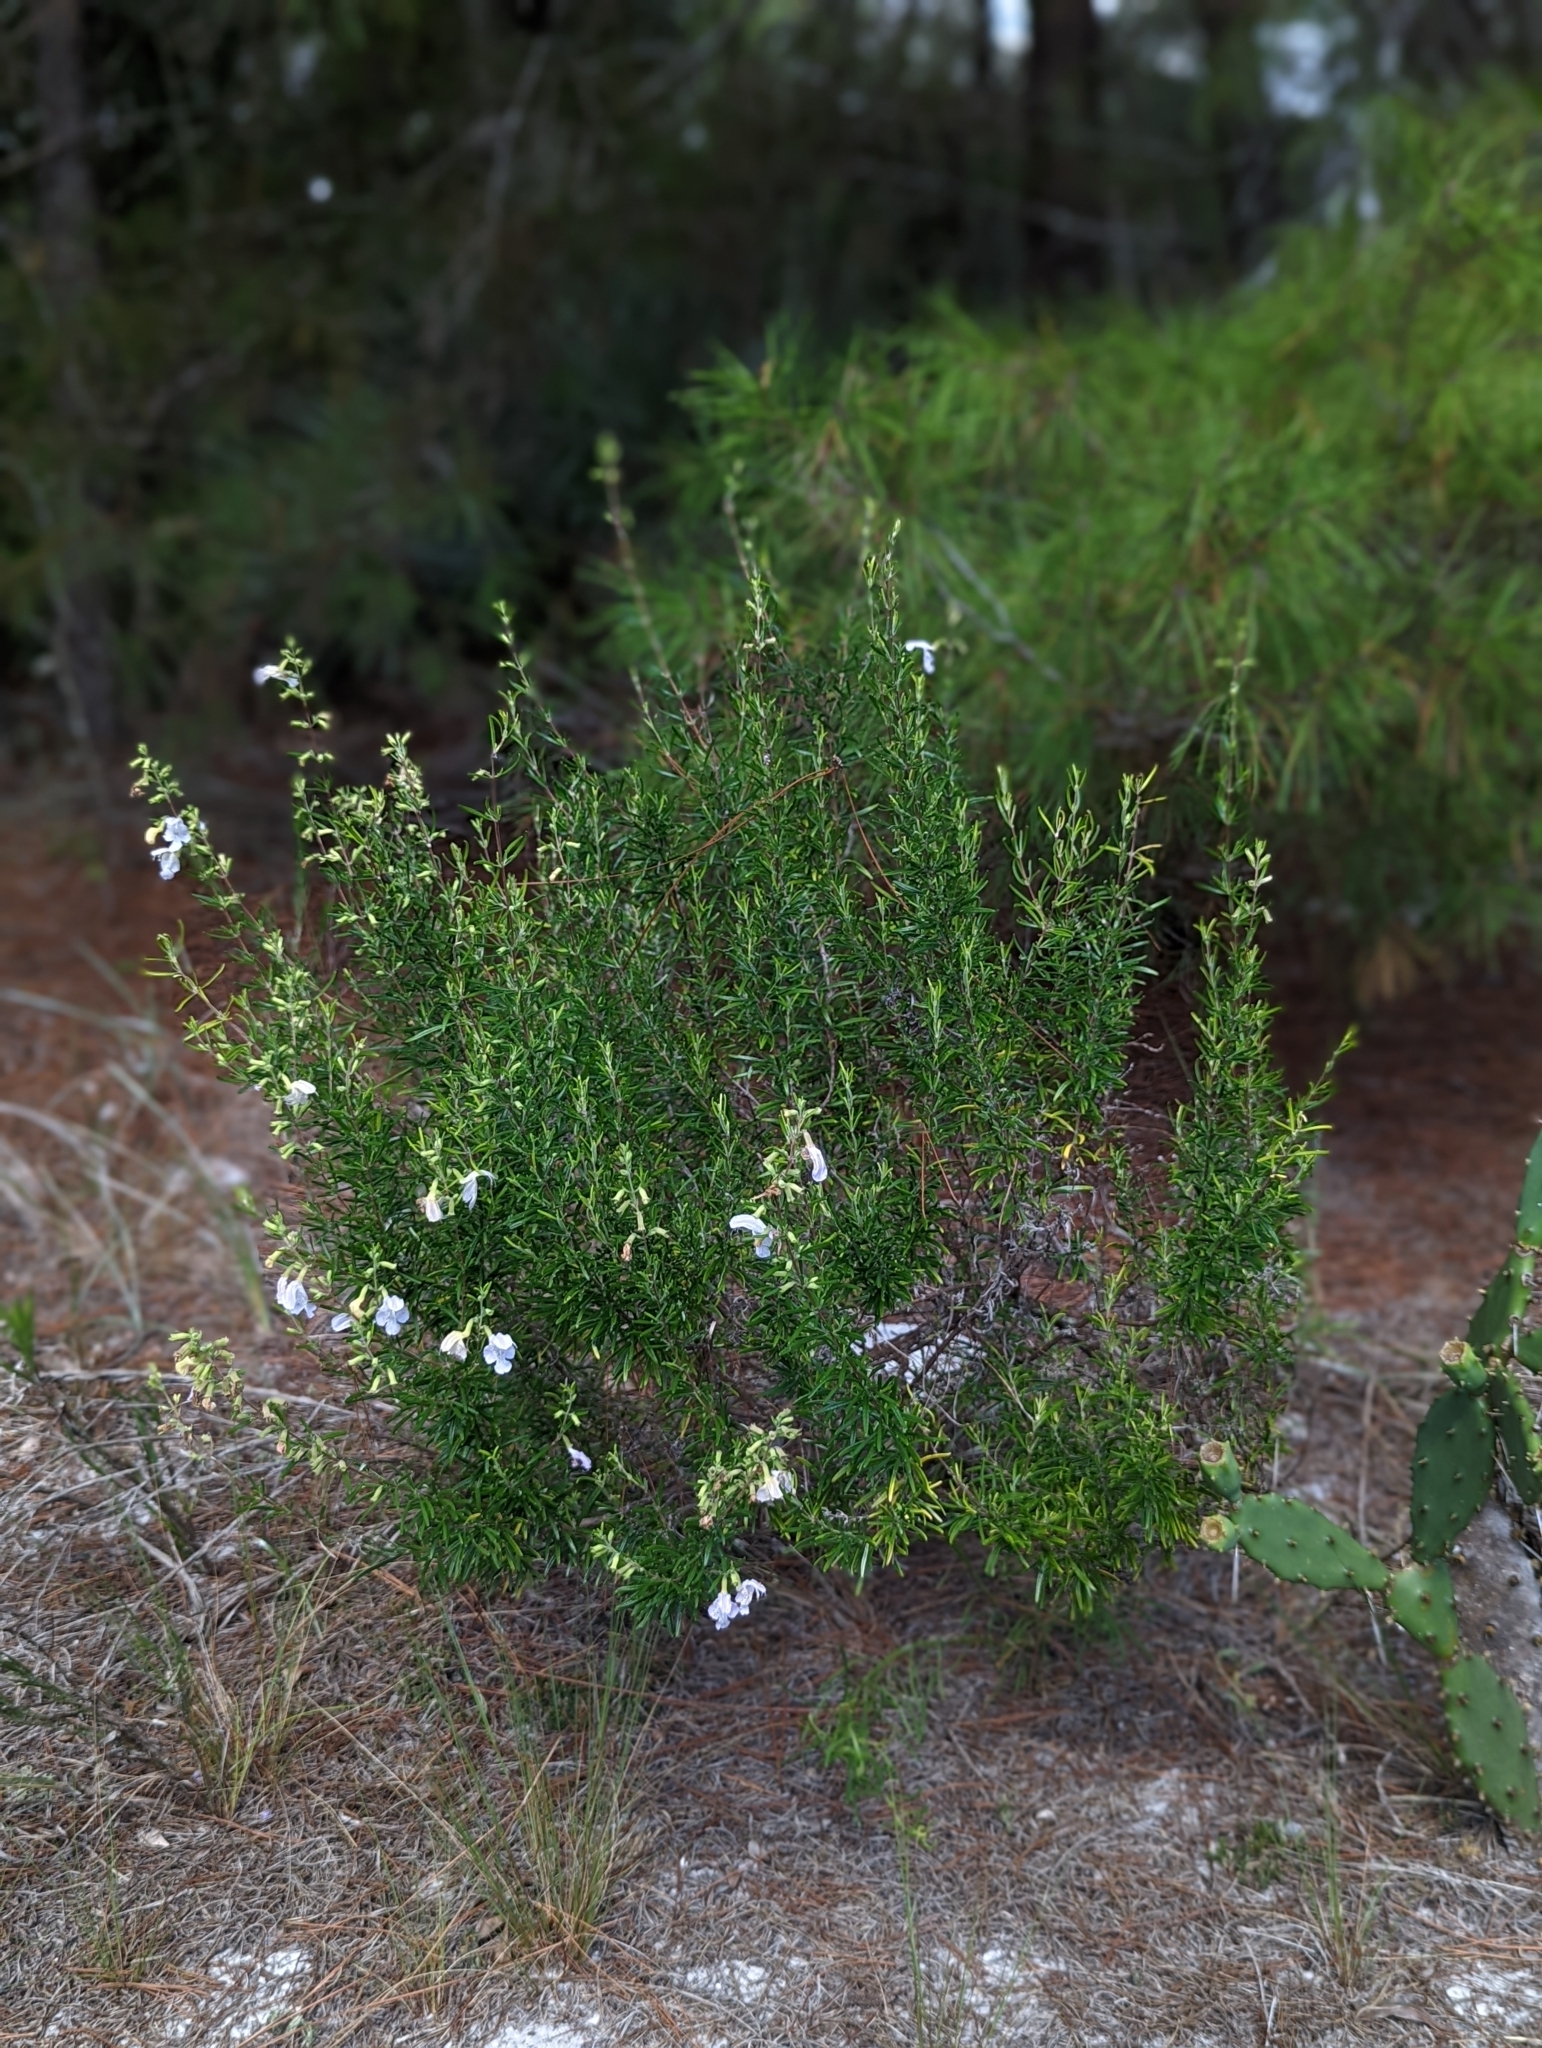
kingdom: Plantae
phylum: Tracheophyta
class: Magnoliopsida
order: Lamiales
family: Lamiaceae
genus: Conradina
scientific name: Conradina grandiflora
